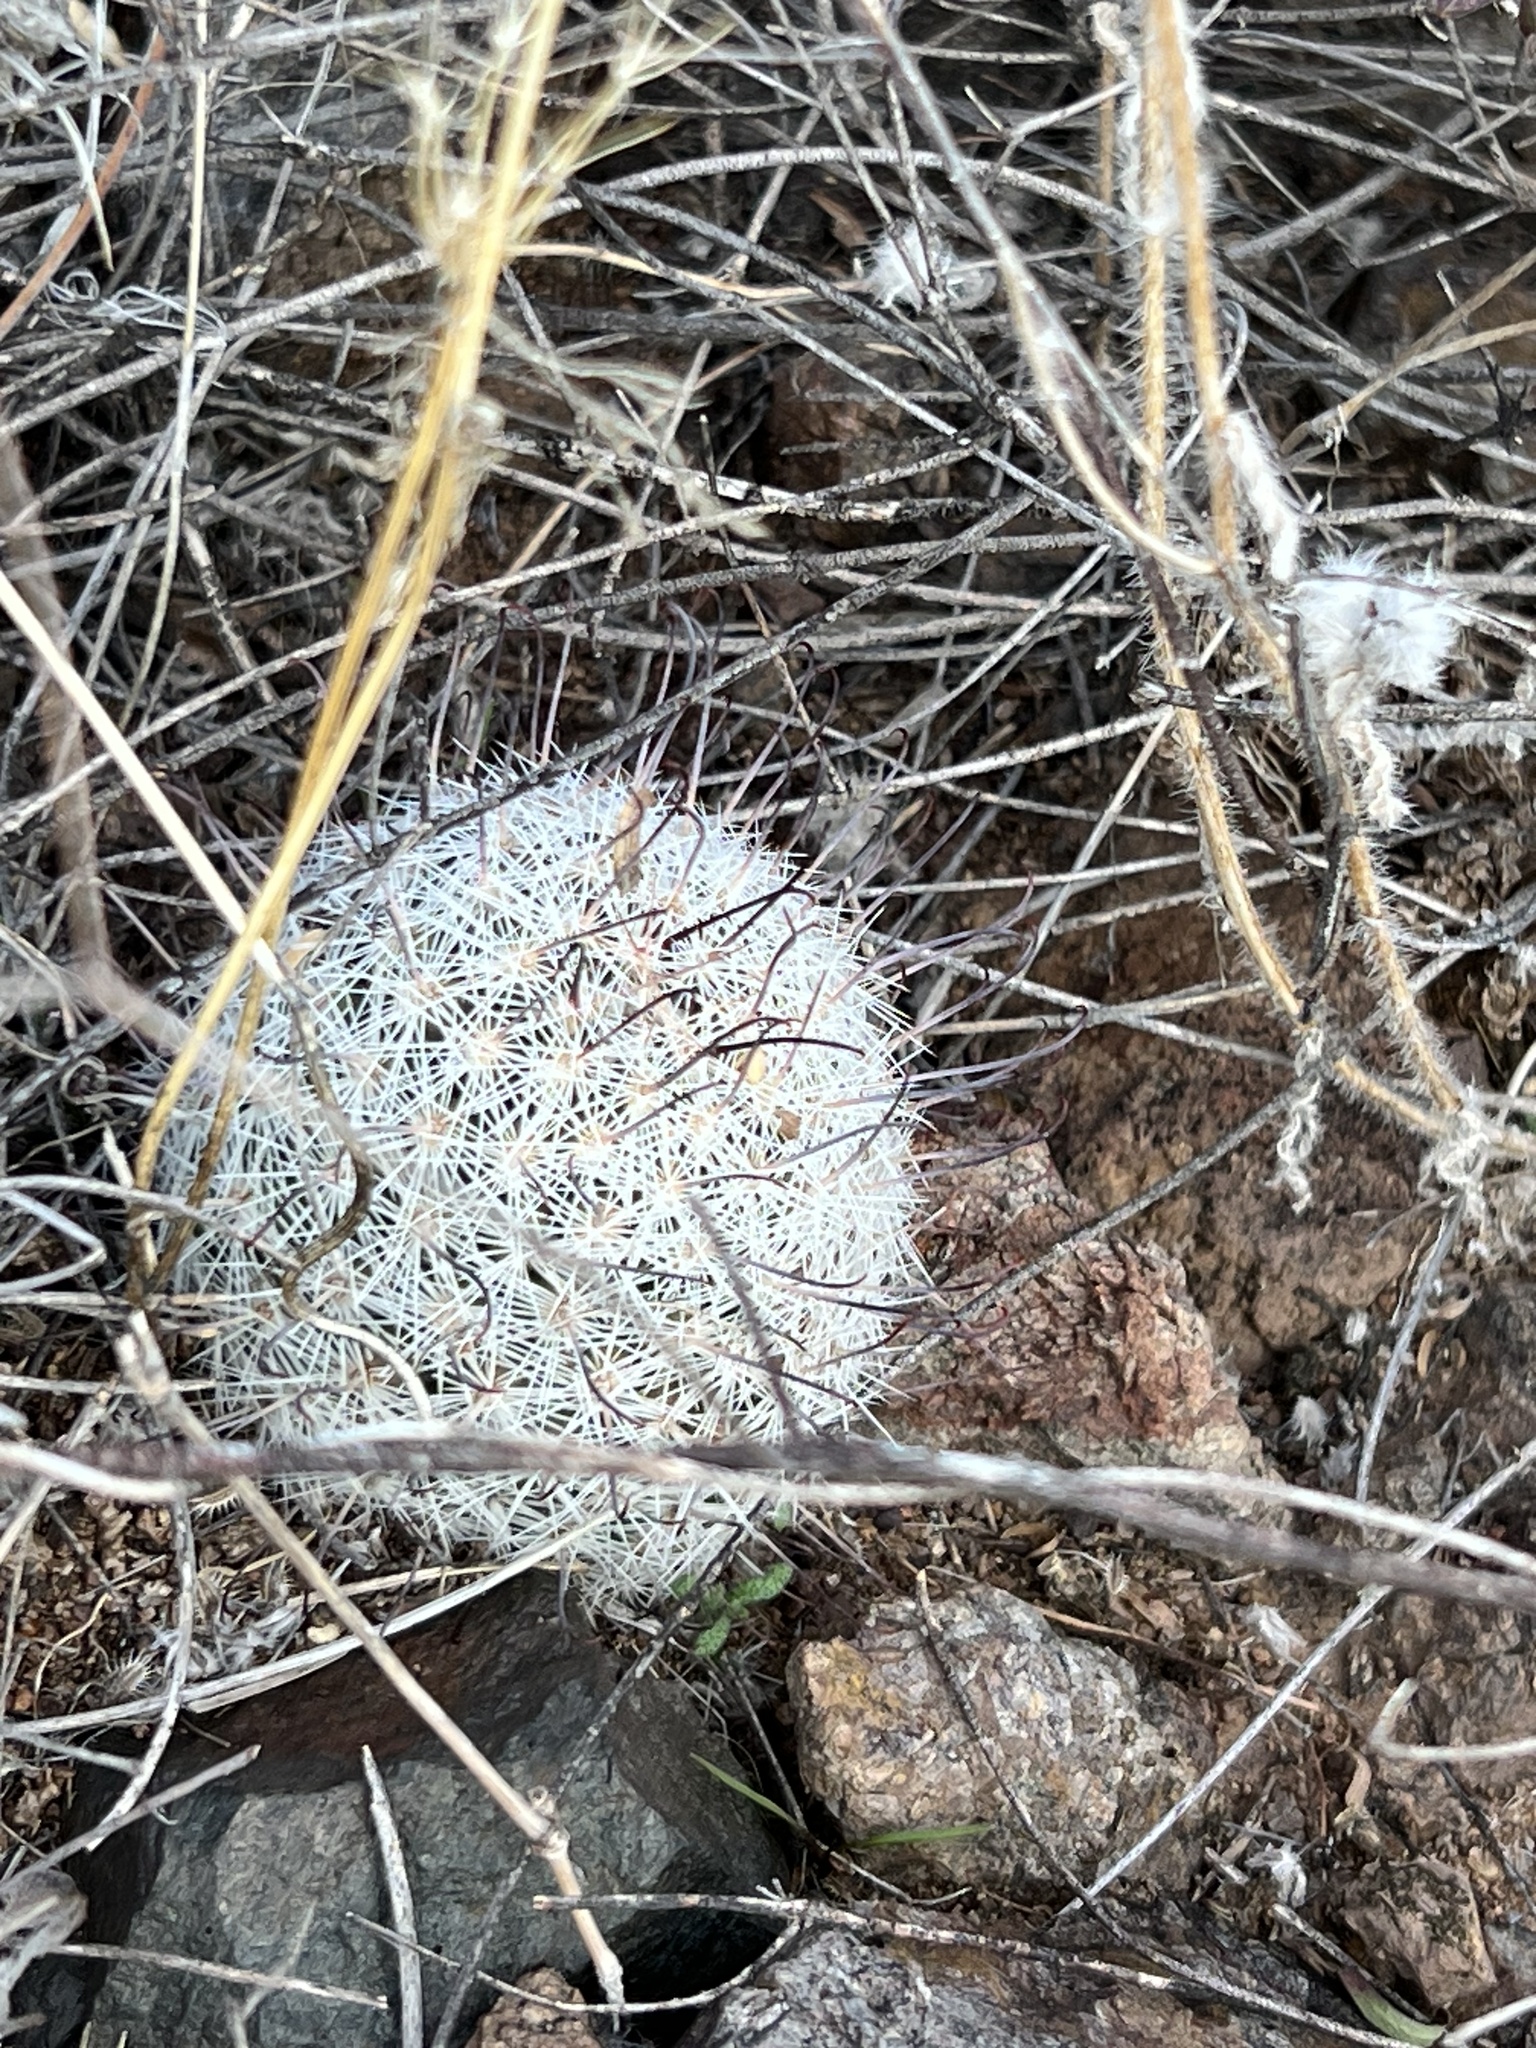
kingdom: Plantae
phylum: Tracheophyta
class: Magnoliopsida
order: Caryophyllales
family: Cactaceae
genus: Cochemiea
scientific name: Cochemiea grahamii
